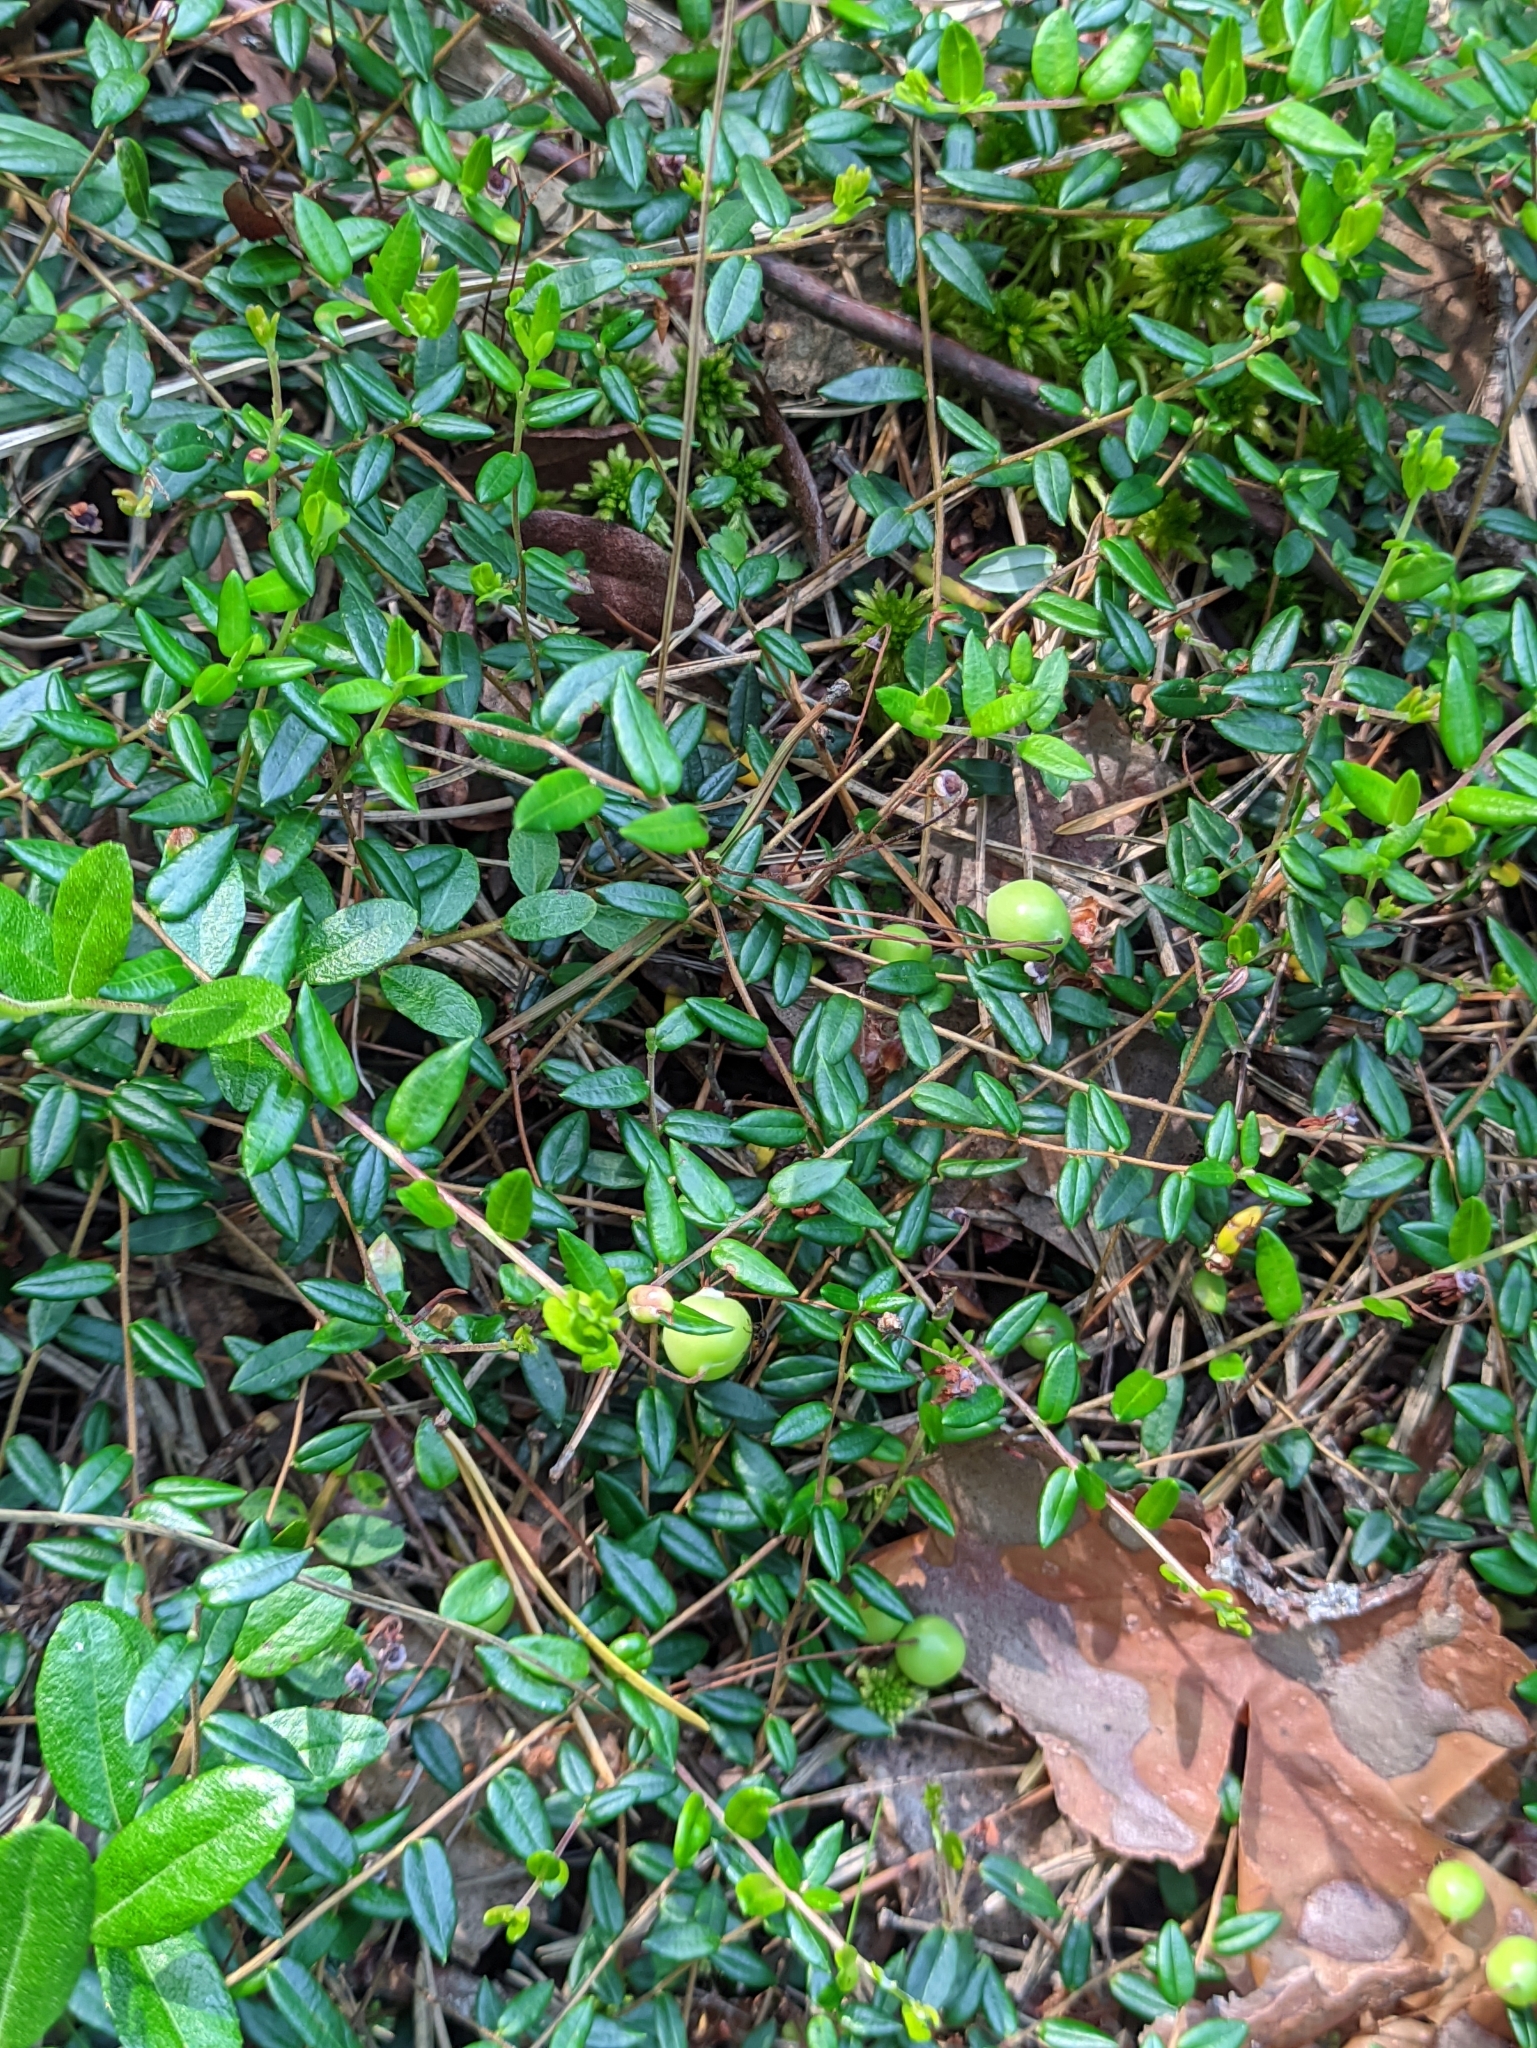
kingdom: Plantae
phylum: Tracheophyta
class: Magnoliopsida
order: Ericales
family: Ericaceae
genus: Vaccinium
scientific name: Vaccinium oxycoccos
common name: Cranberry
